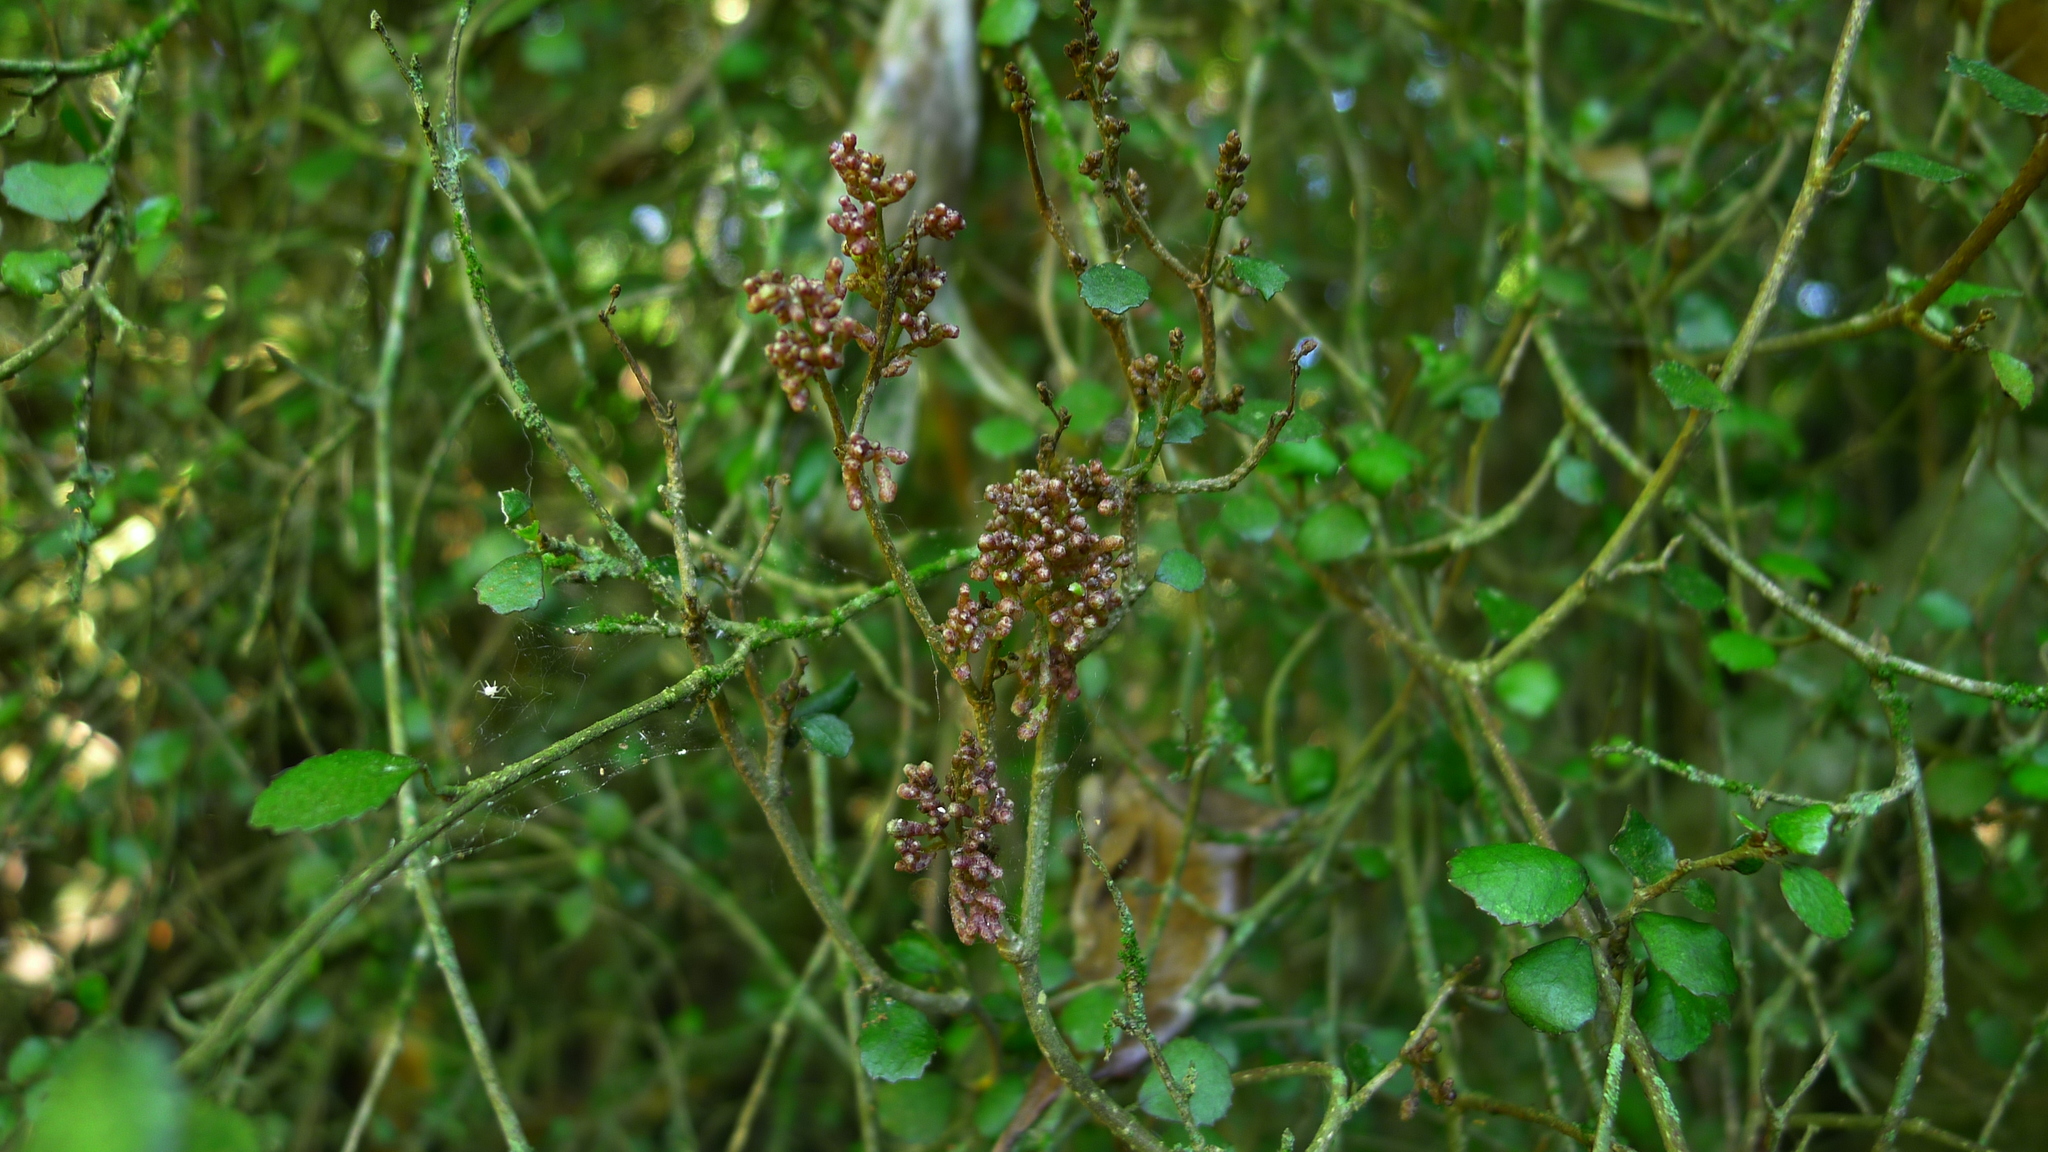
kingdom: Animalia
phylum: Arthropoda
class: Arachnida
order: Trombidiformes
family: Eriophyidae
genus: Eriophyes
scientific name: Eriophyes
